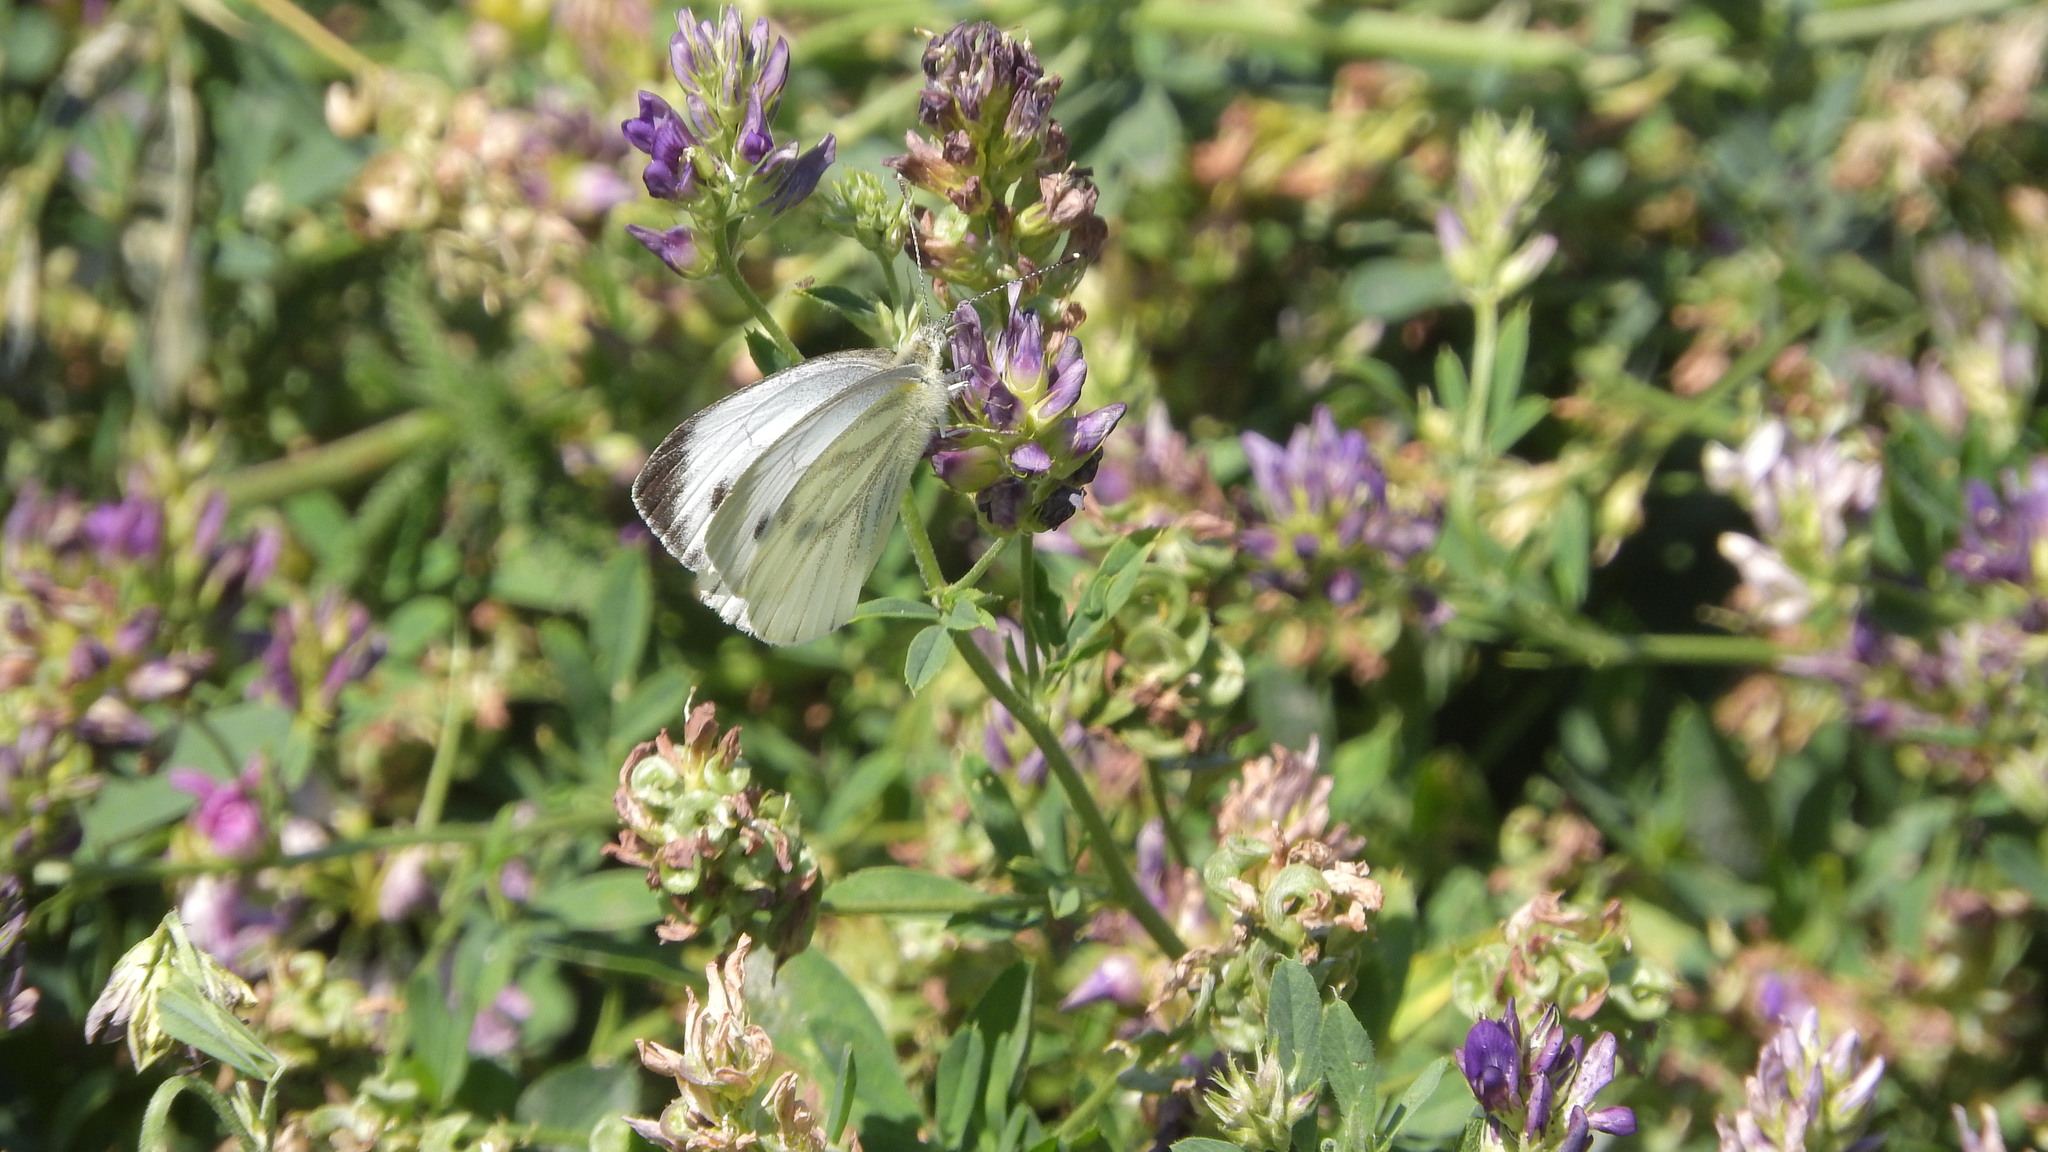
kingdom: Animalia
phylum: Arthropoda
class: Insecta
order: Lepidoptera
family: Pieridae
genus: Pieris
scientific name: Pieris napi
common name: Green-veined white
